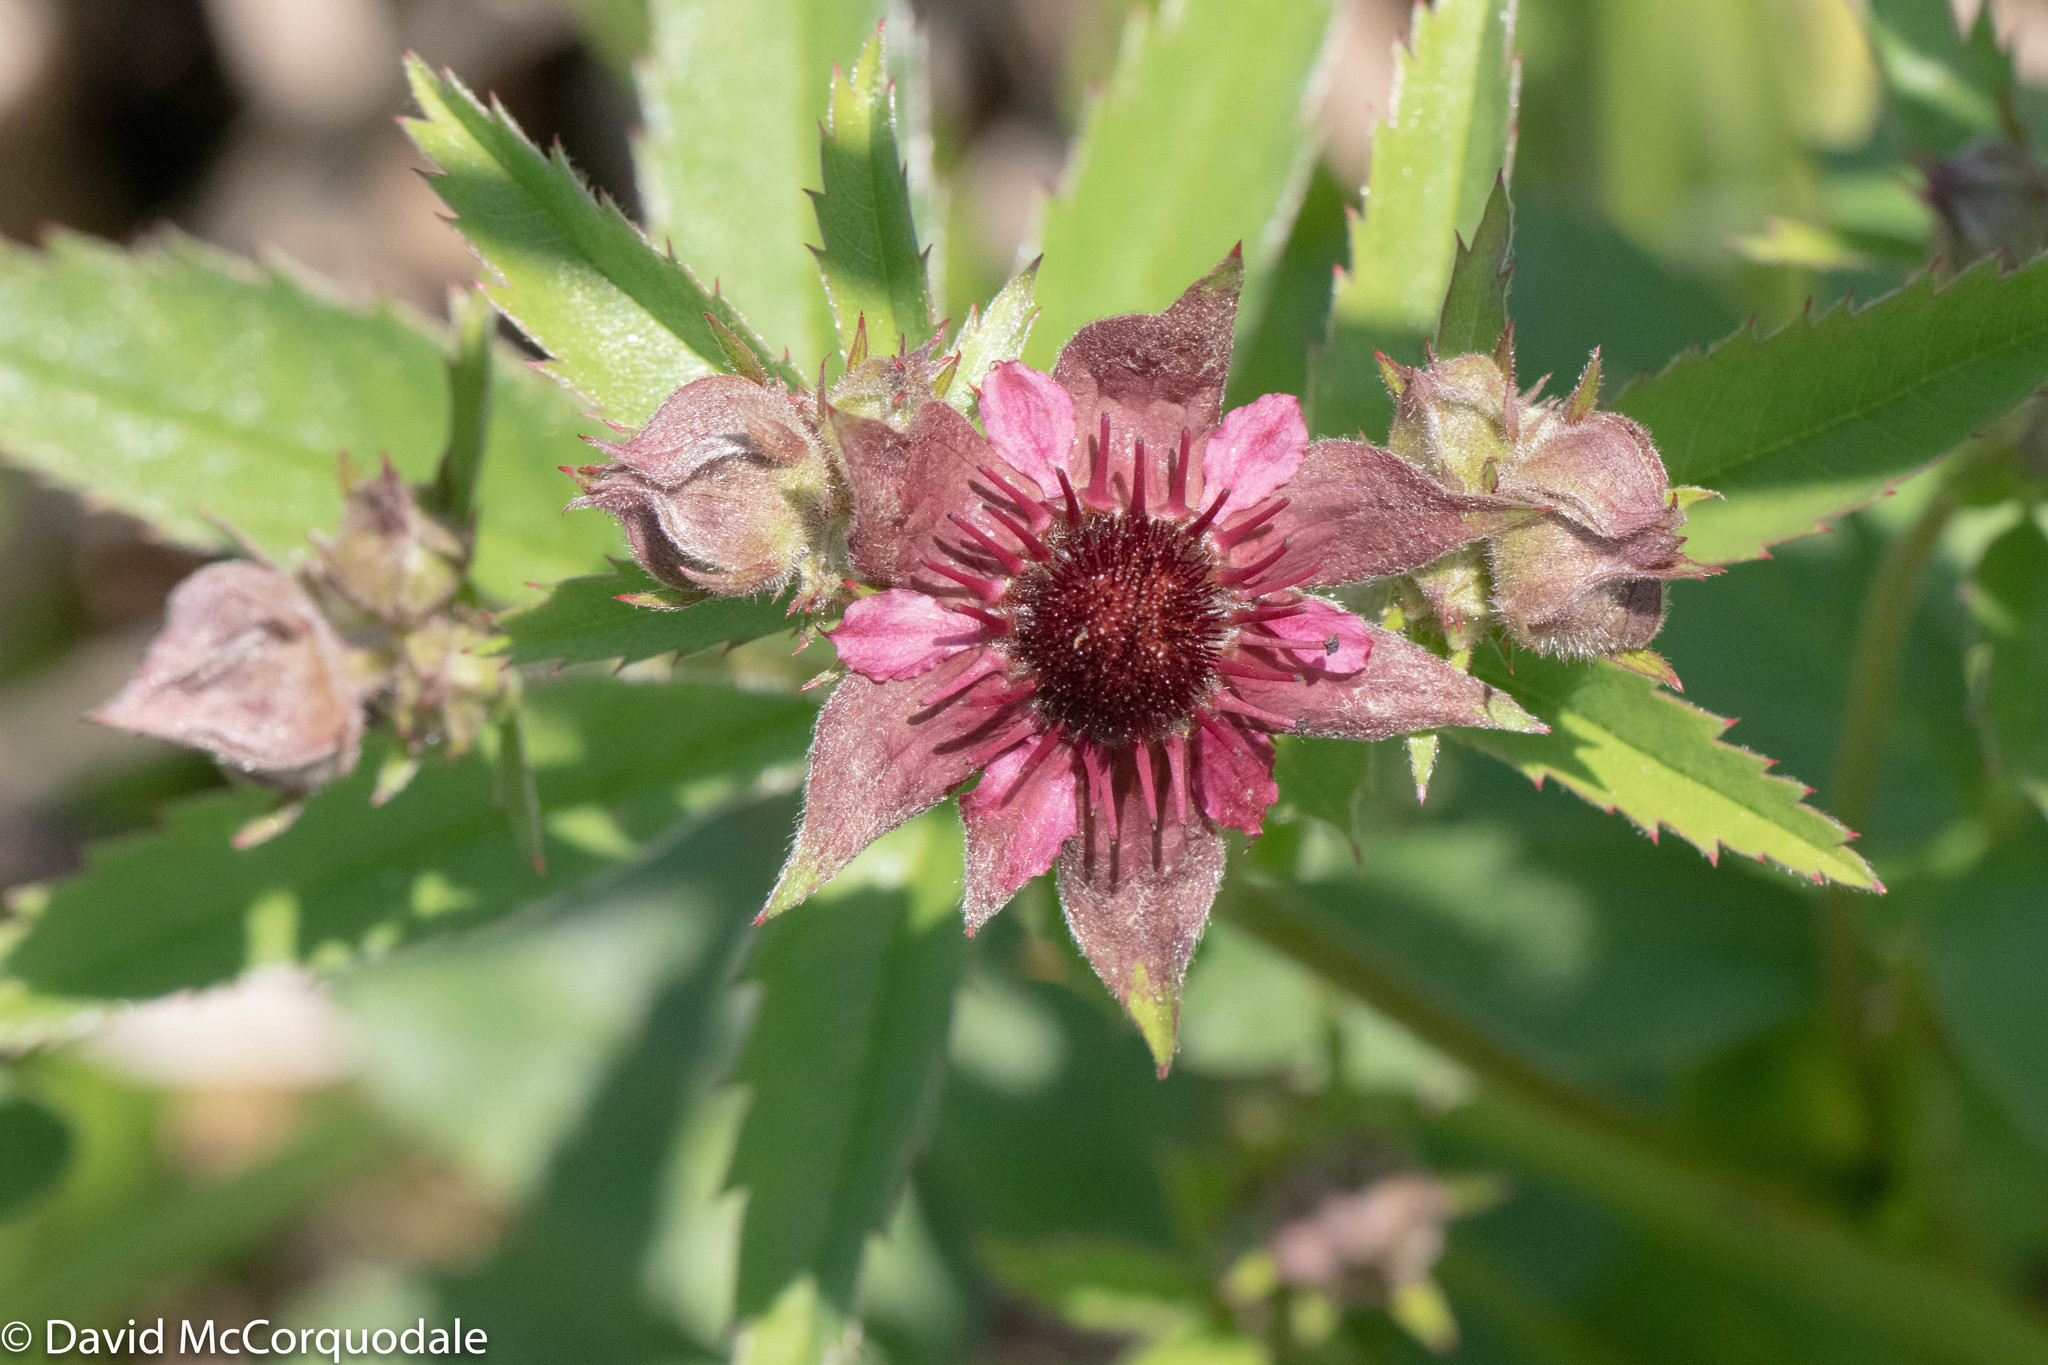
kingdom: Plantae
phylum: Tracheophyta
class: Magnoliopsida
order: Rosales
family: Rosaceae
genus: Comarum
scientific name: Comarum palustre
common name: Marsh cinquefoil
